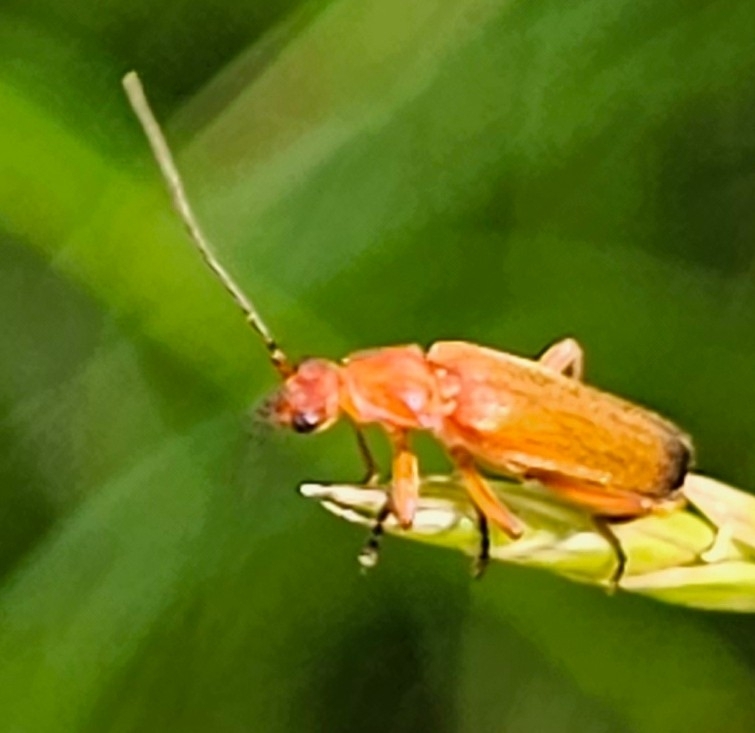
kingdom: Animalia
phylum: Arthropoda
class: Insecta
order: Coleoptera
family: Cantharidae
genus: Rhagonycha
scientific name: Rhagonycha fulva
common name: Common red soldier beetle
